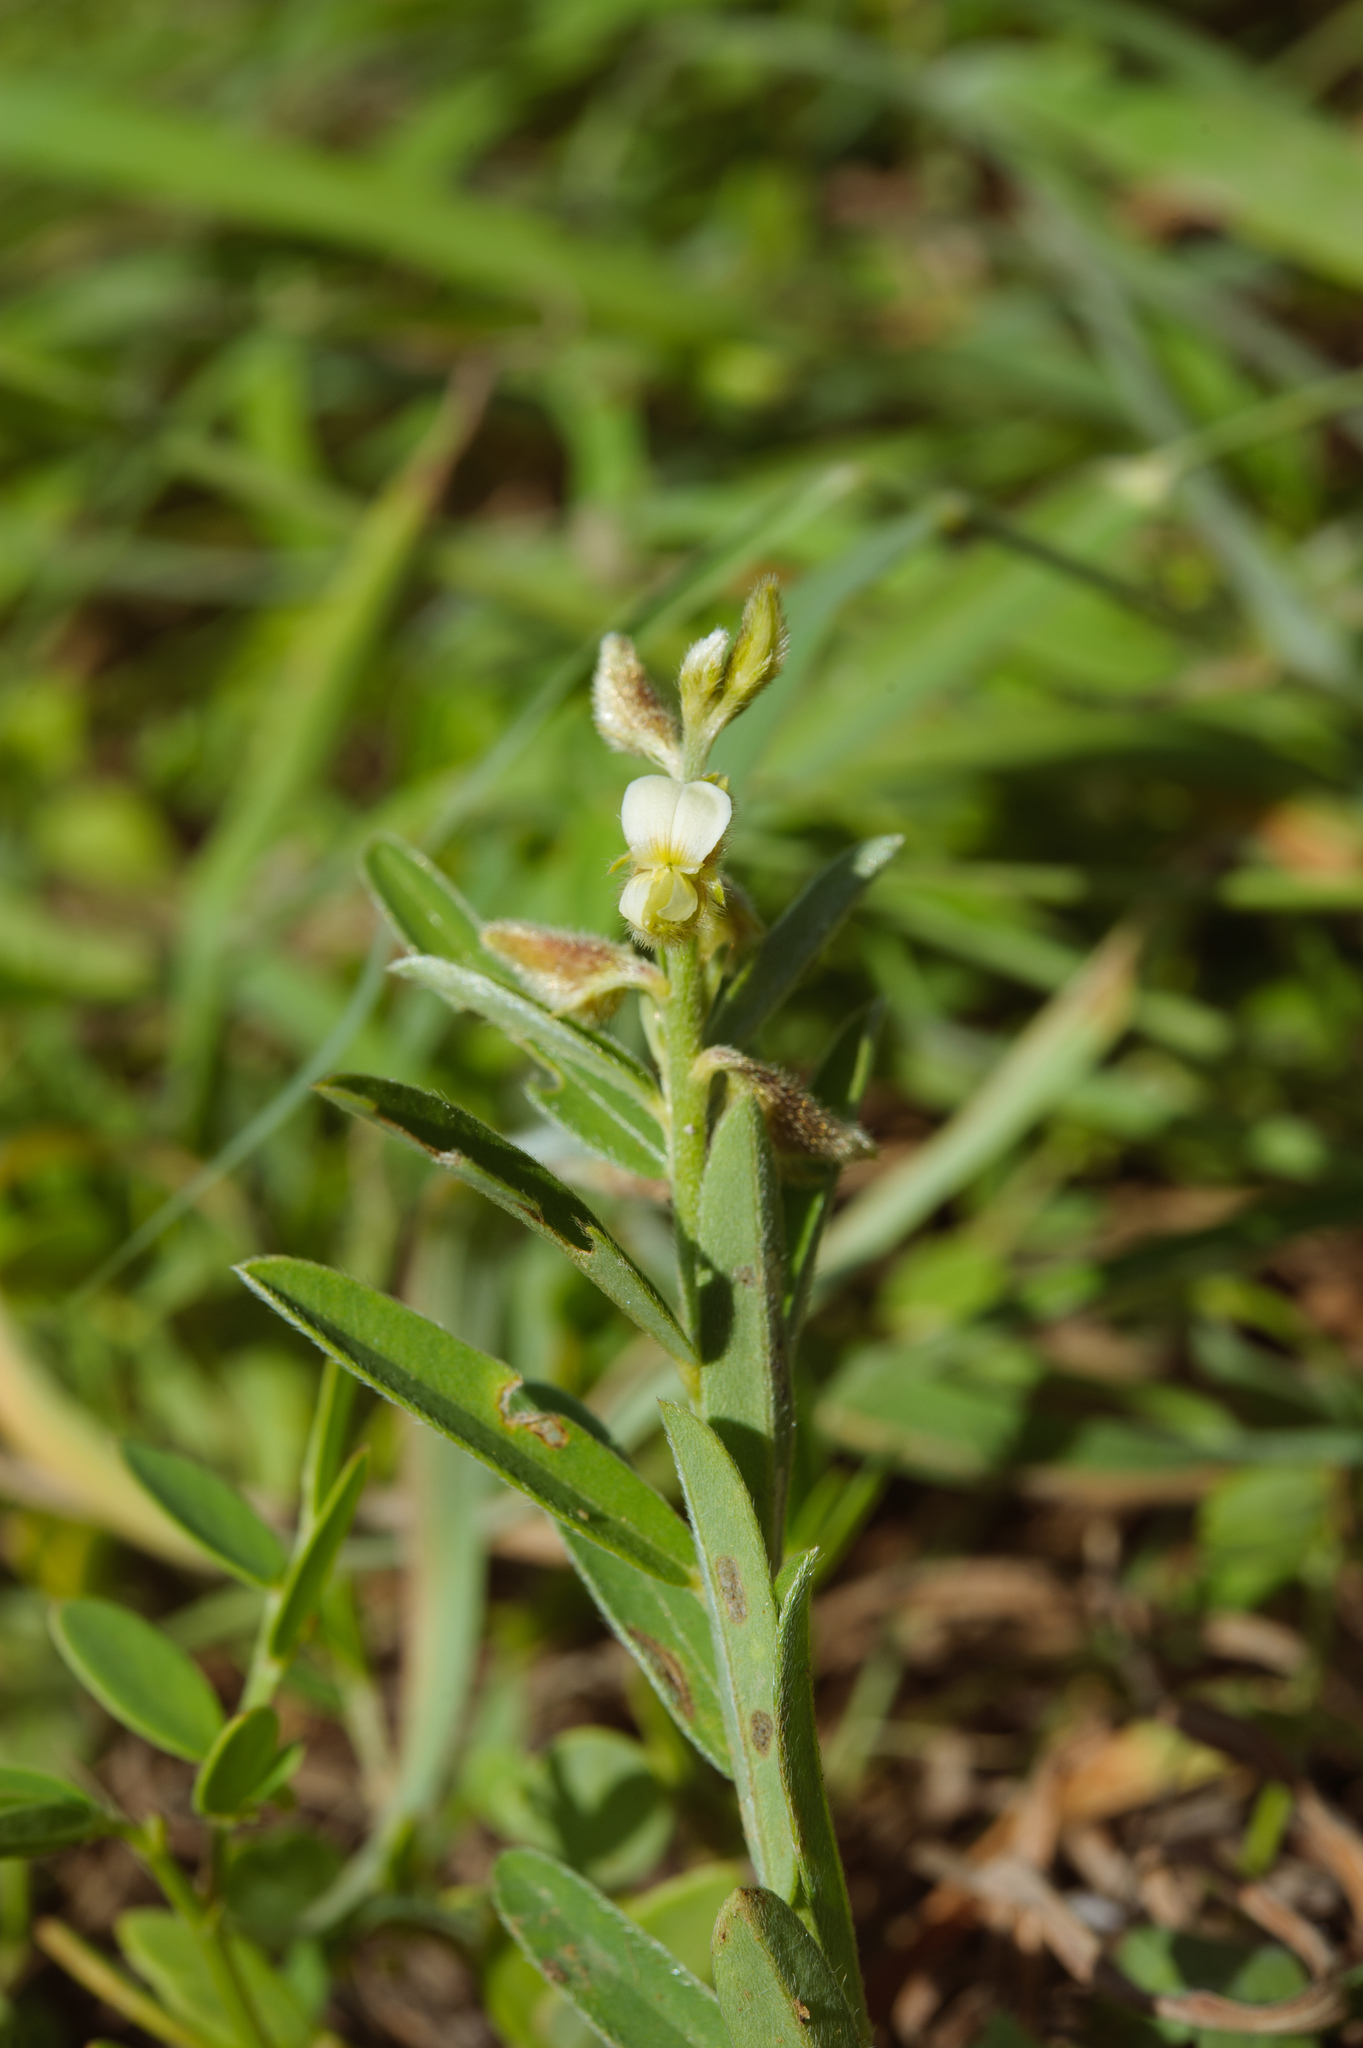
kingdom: Plantae
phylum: Tracheophyta
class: Magnoliopsida
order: Fabales
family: Fabaceae
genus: Crotalaria
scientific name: Crotalaria linifolia
